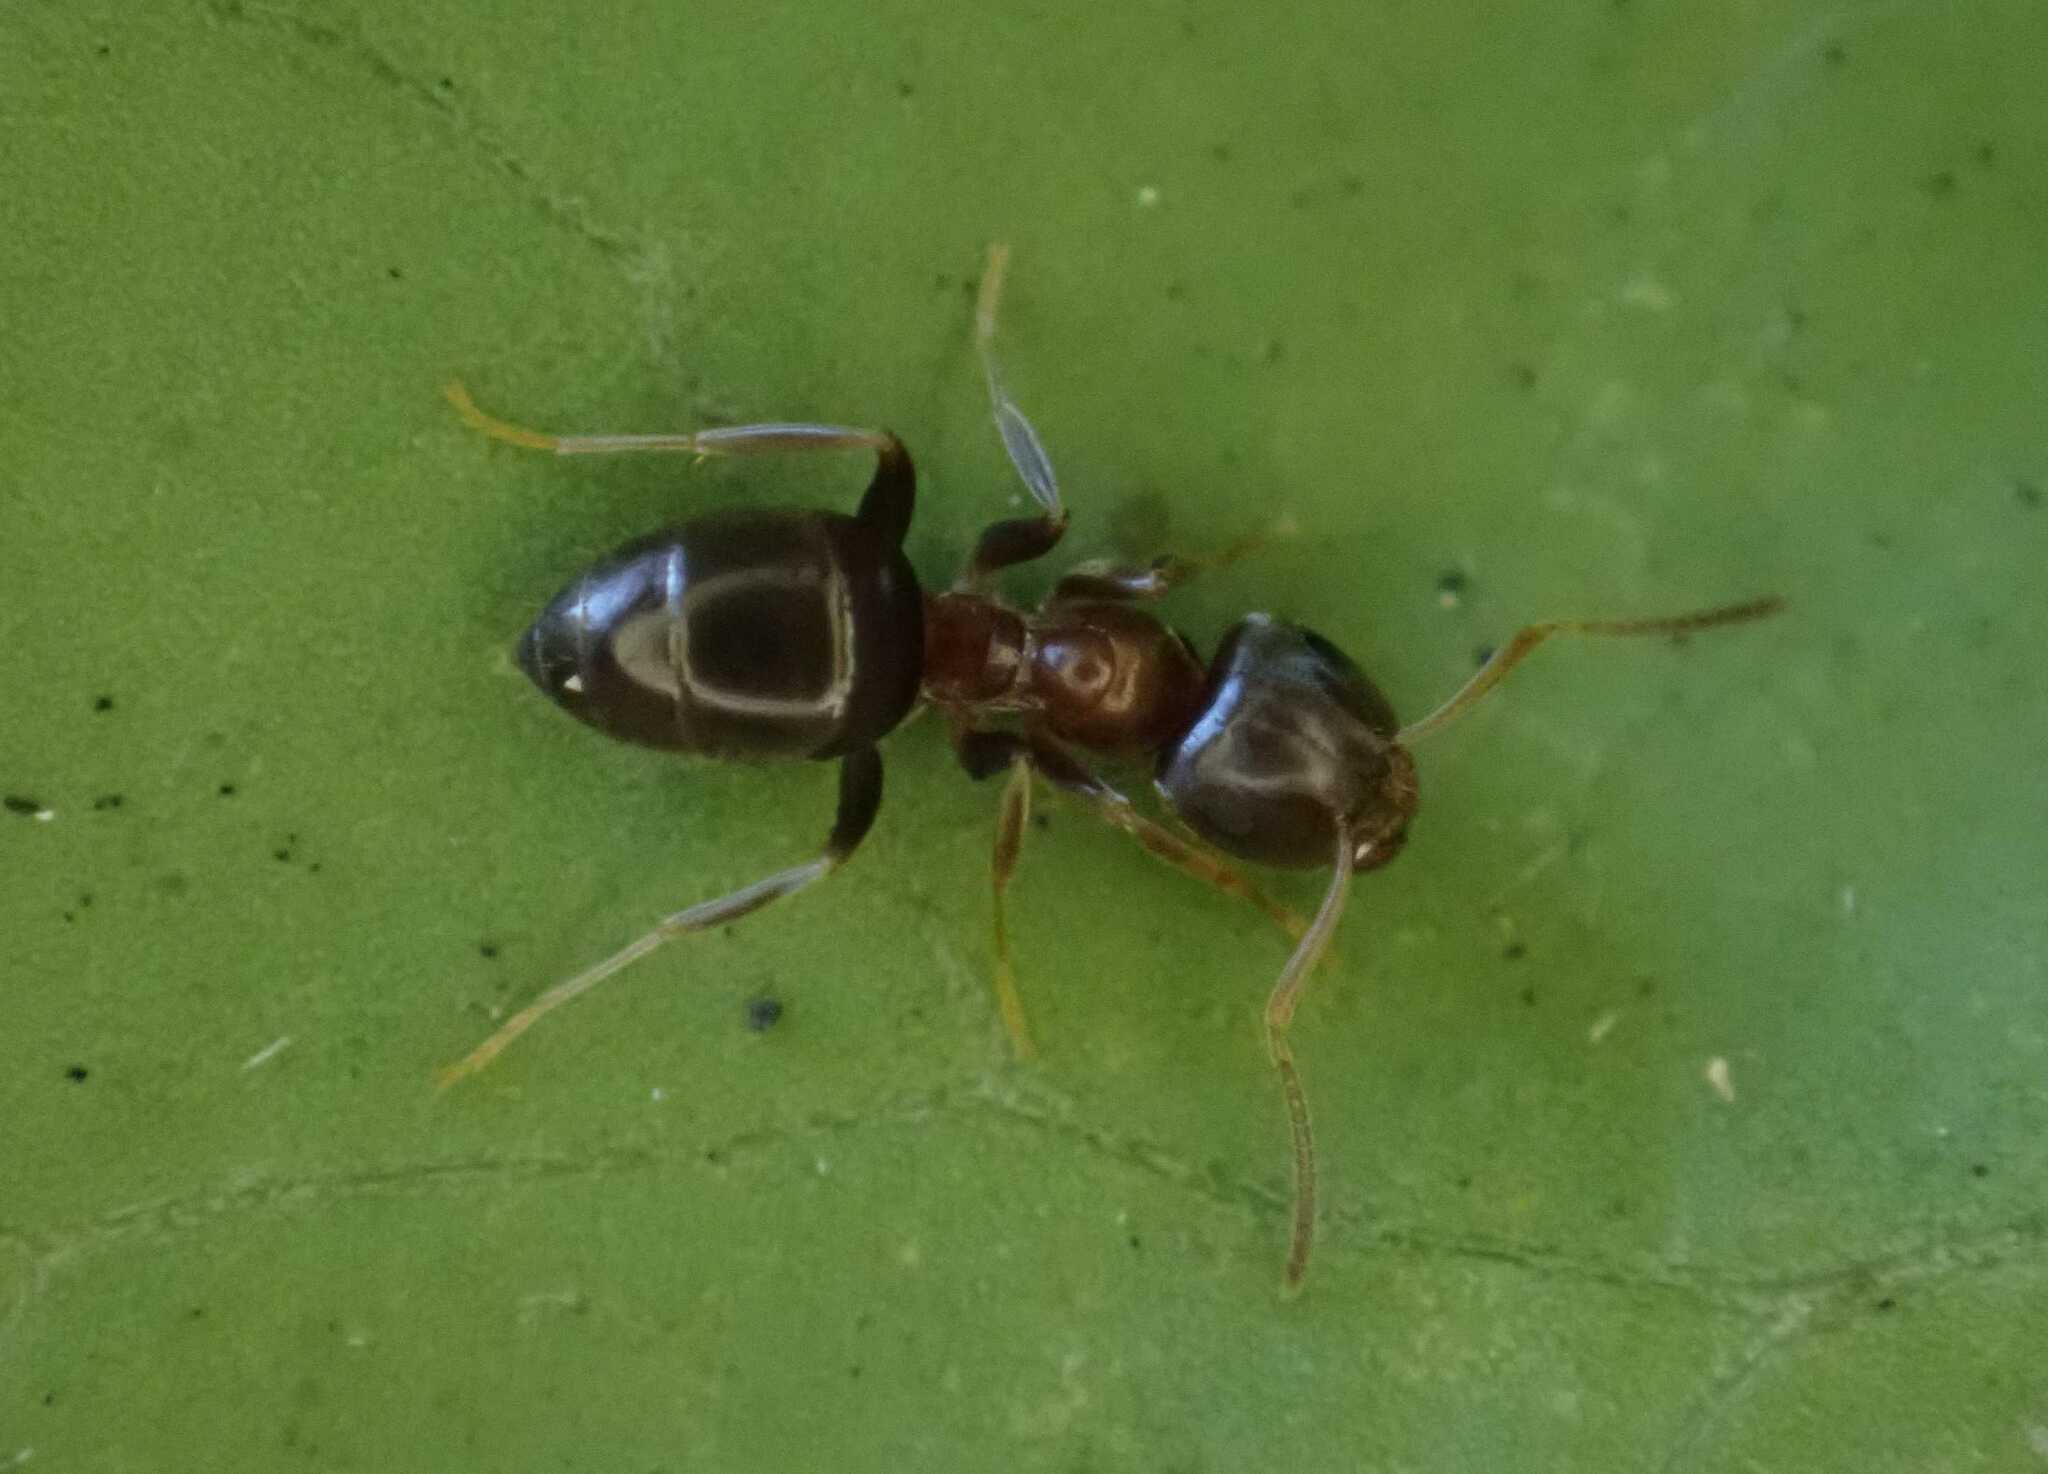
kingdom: Animalia
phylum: Arthropoda
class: Insecta
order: Hymenoptera
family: Formicidae
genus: Lasius
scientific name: Lasius brunneus
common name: Brown ant
